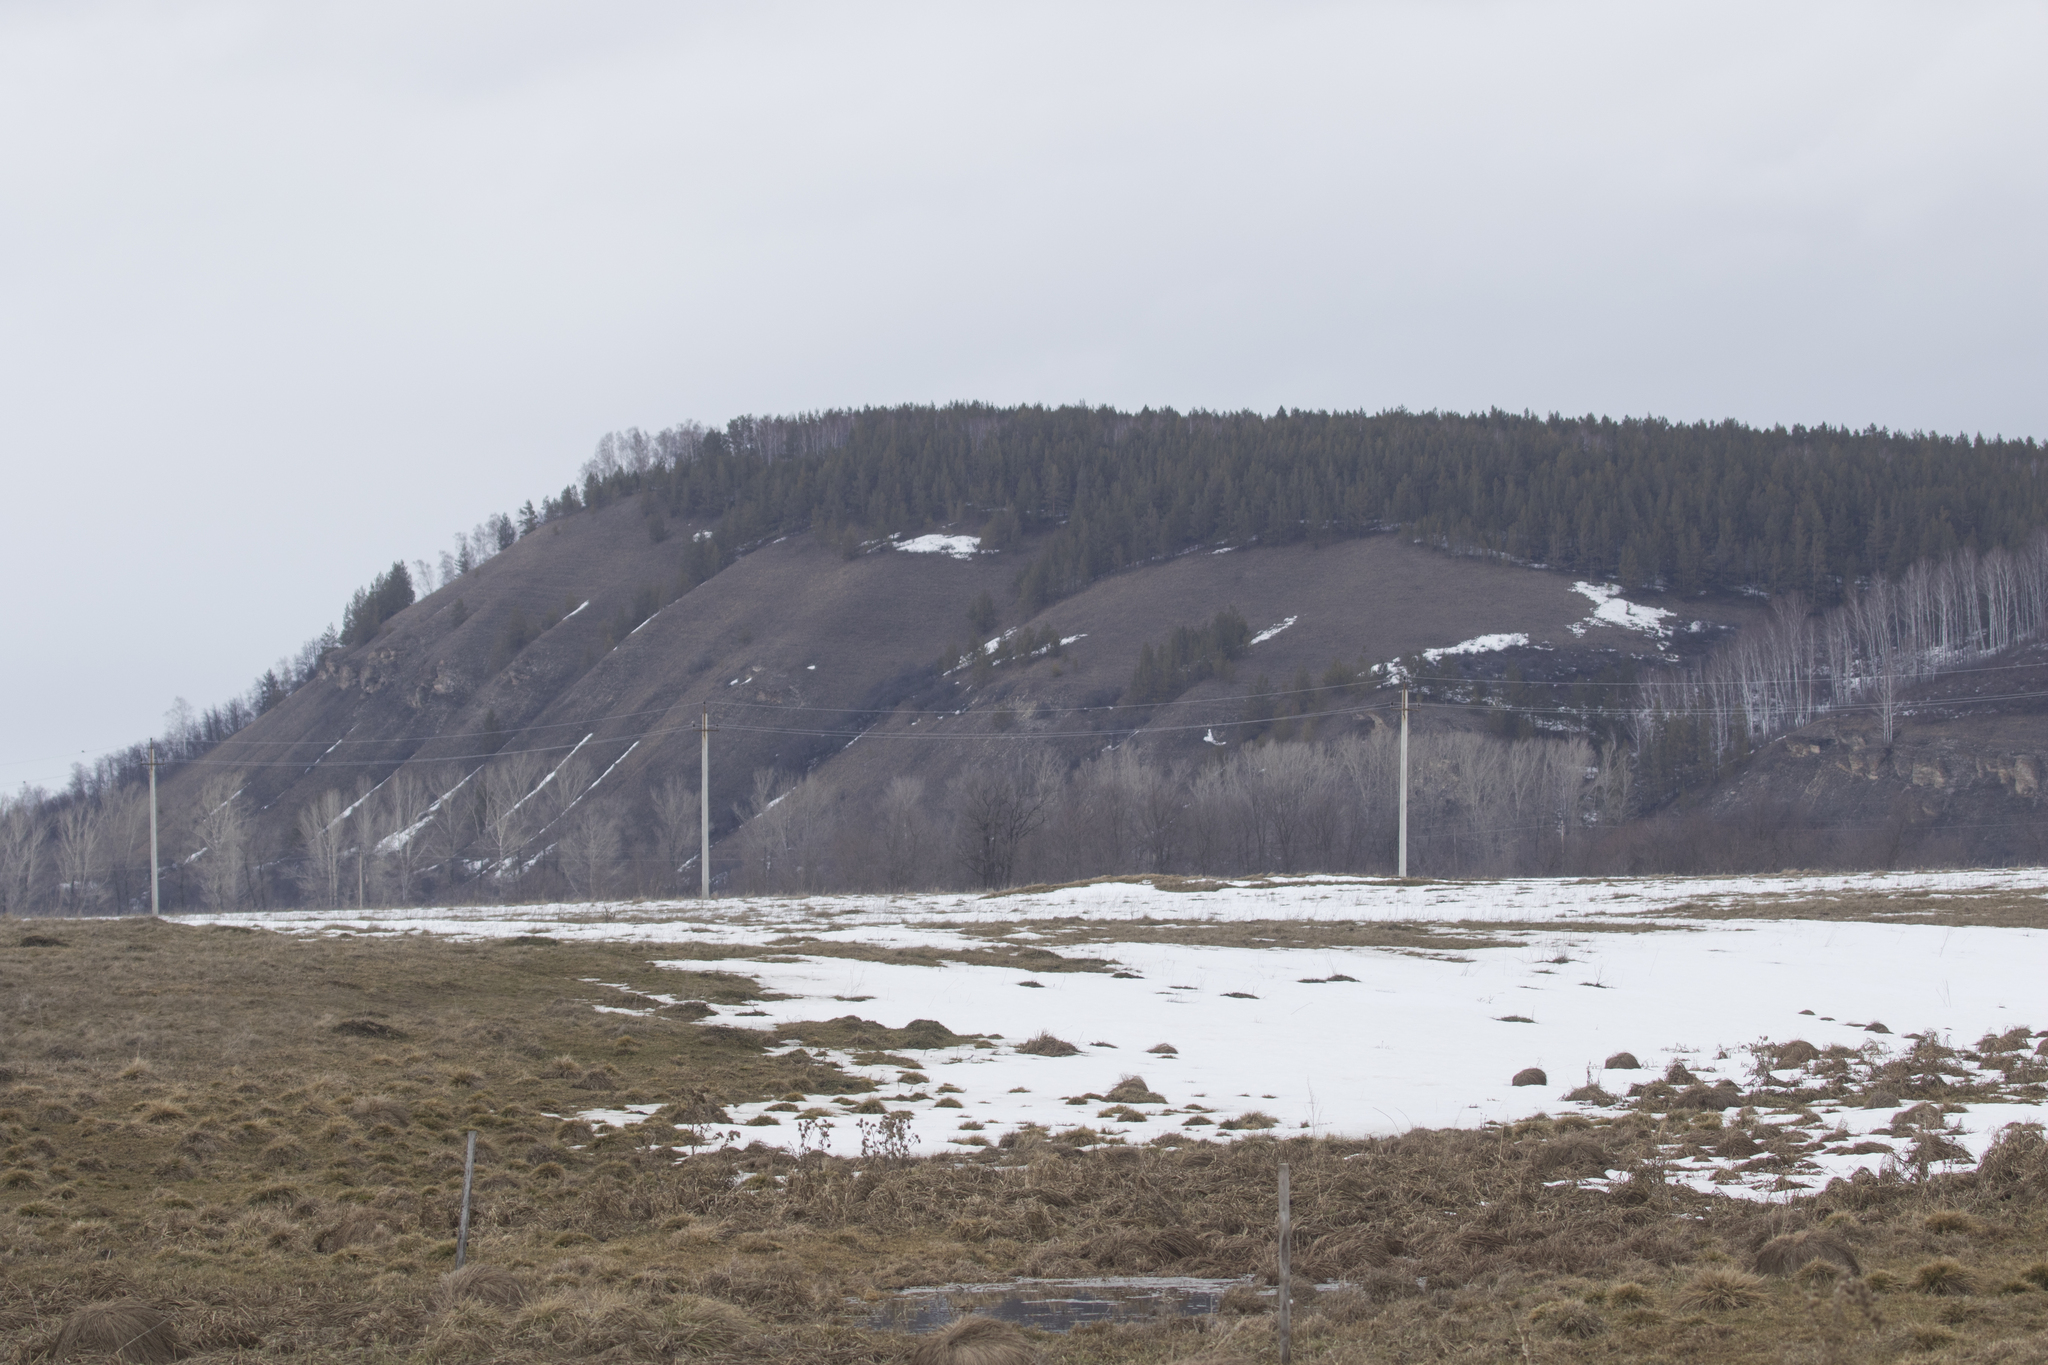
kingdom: Plantae
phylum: Tracheophyta
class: Pinopsida
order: Pinales
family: Pinaceae
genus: Pinus
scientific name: Pinus sylvestris
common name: Scots pine
